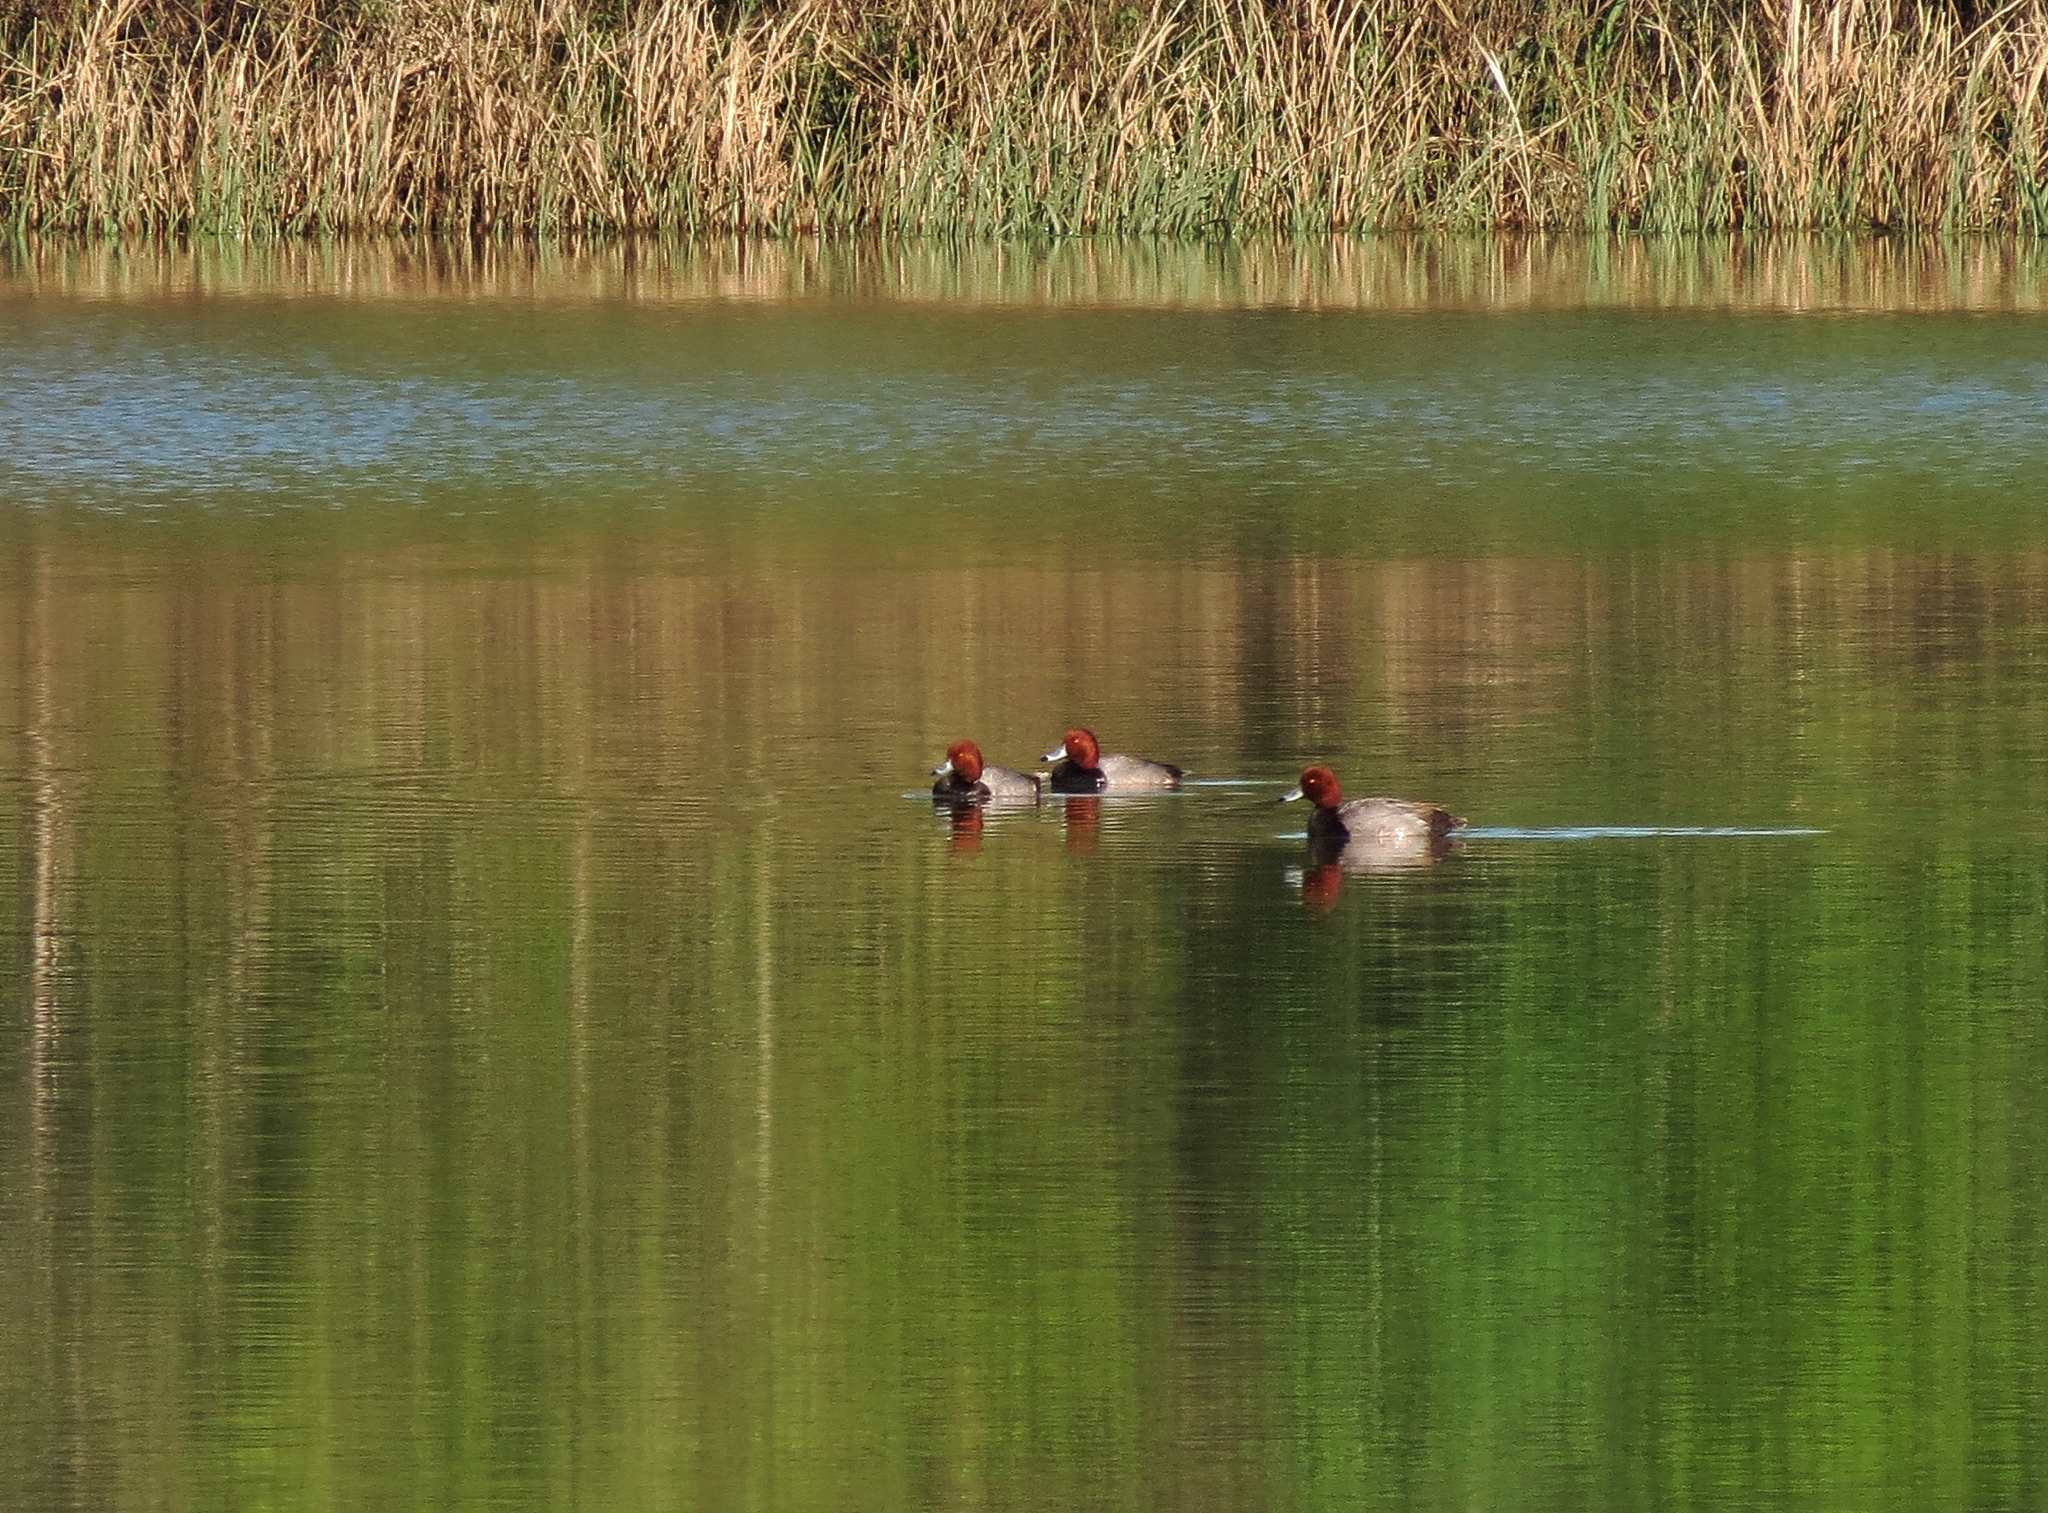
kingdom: Animalia
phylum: Chordata
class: Aves
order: Anseriformes
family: Anatidae
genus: Aythya
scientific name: Aythya americana
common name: Redhead
